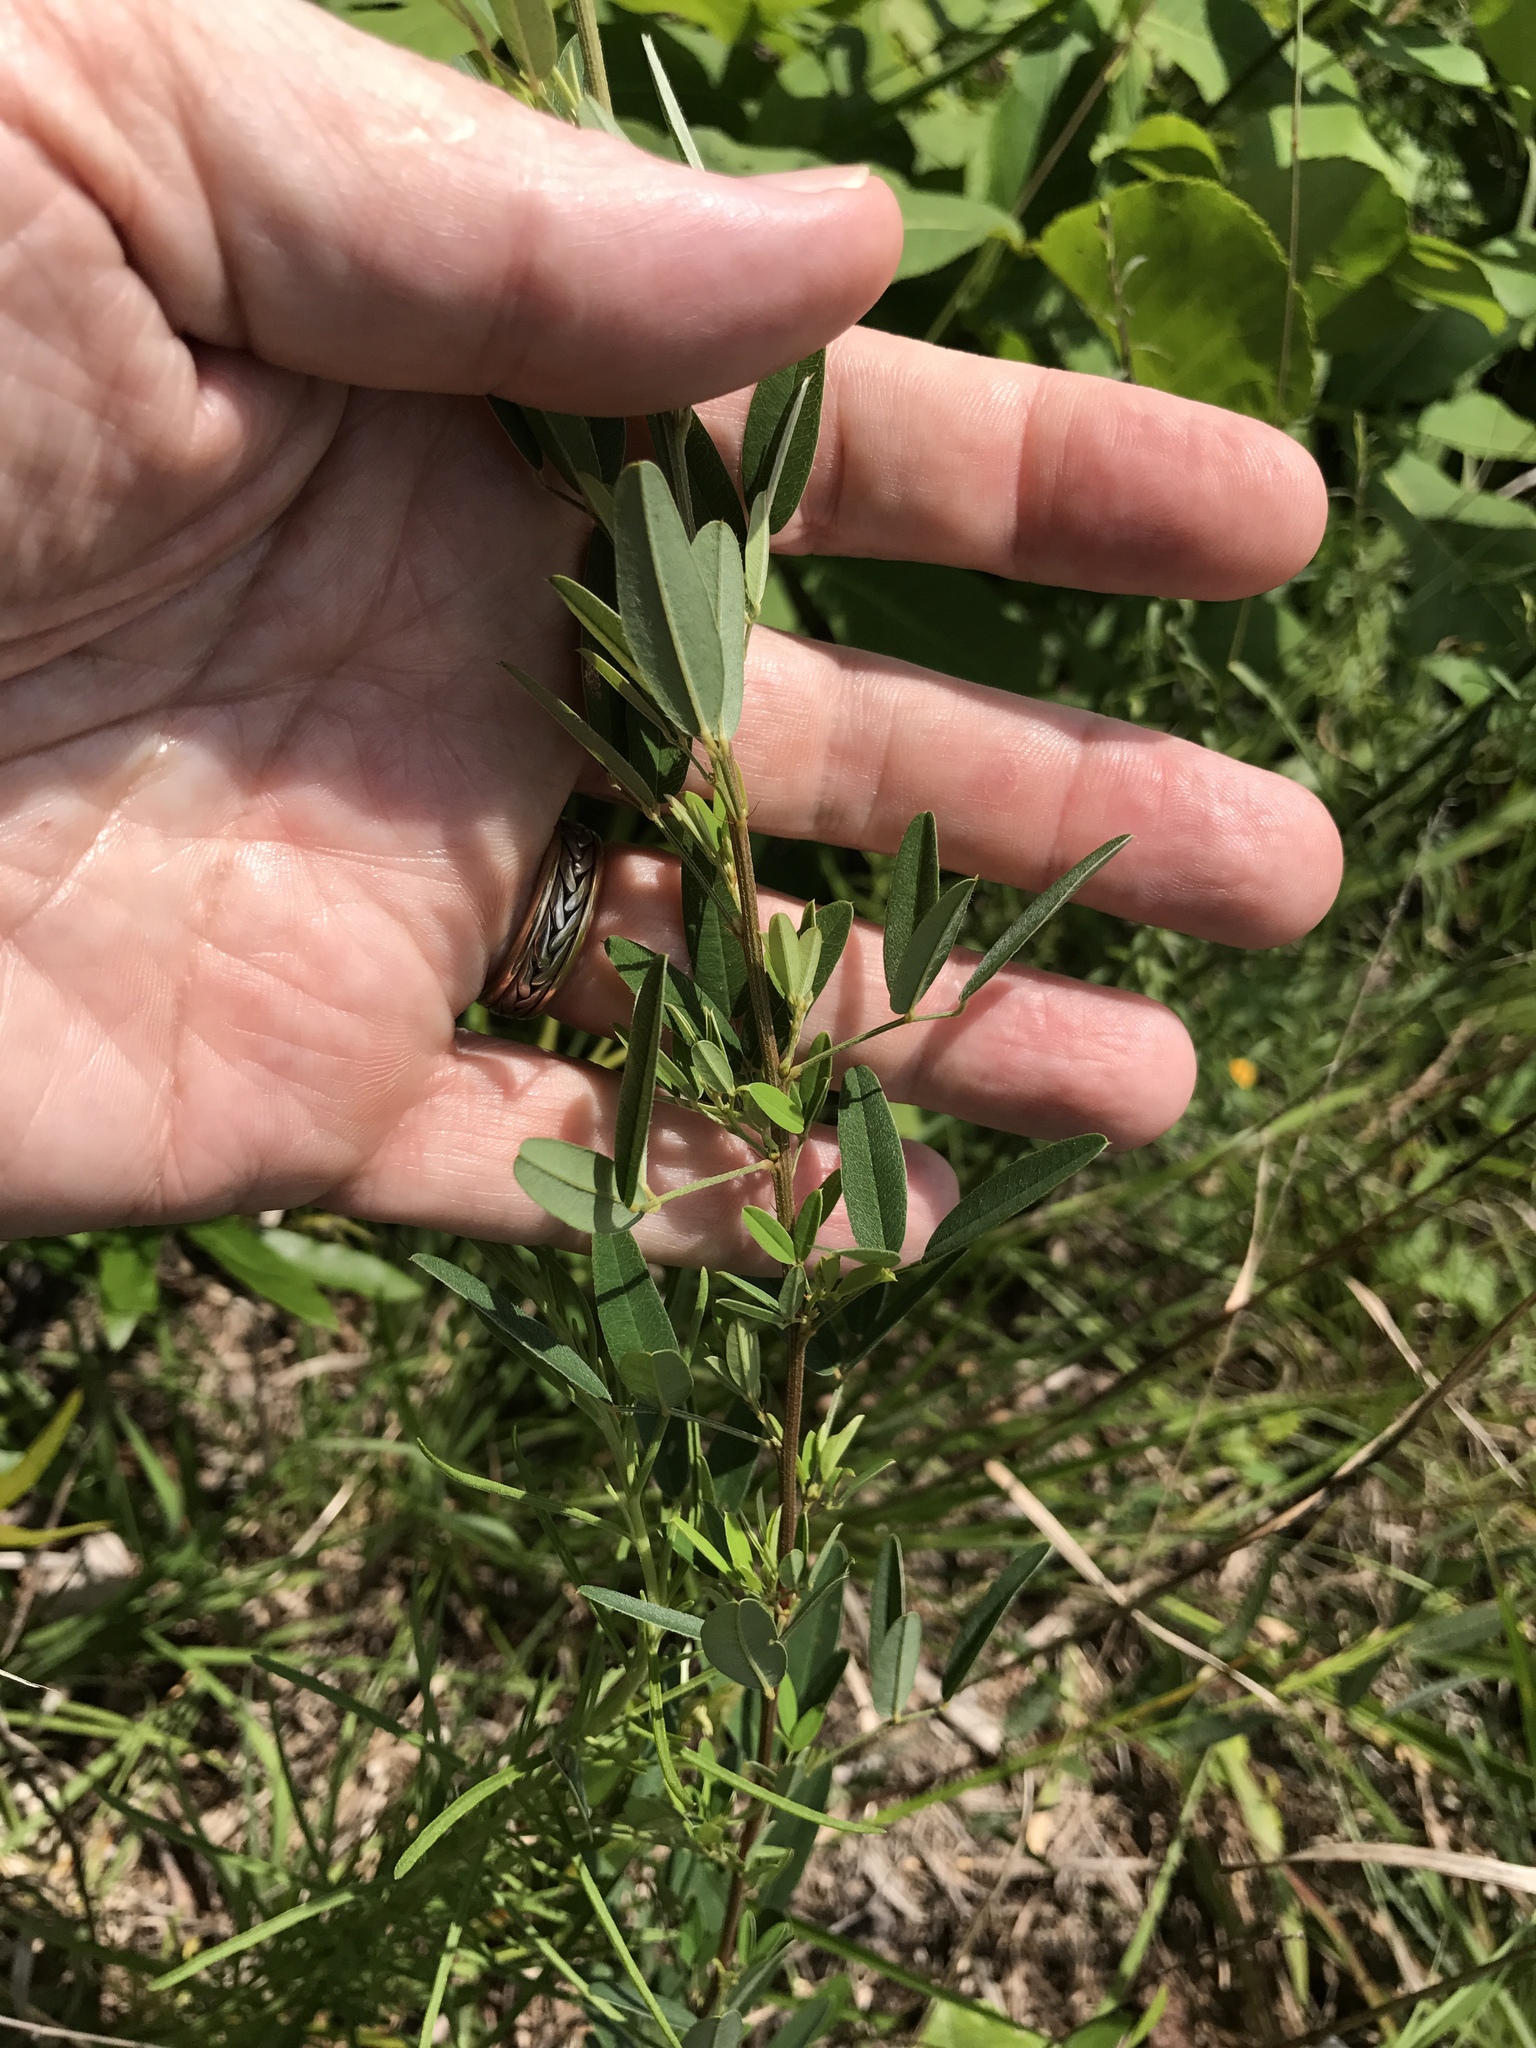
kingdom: Plantae
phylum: Tracheophyta
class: Magnoliopsida
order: Fabales
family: Fabaceae
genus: Lespedeza
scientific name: Lespedeza virginica
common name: Slender bush-clover
